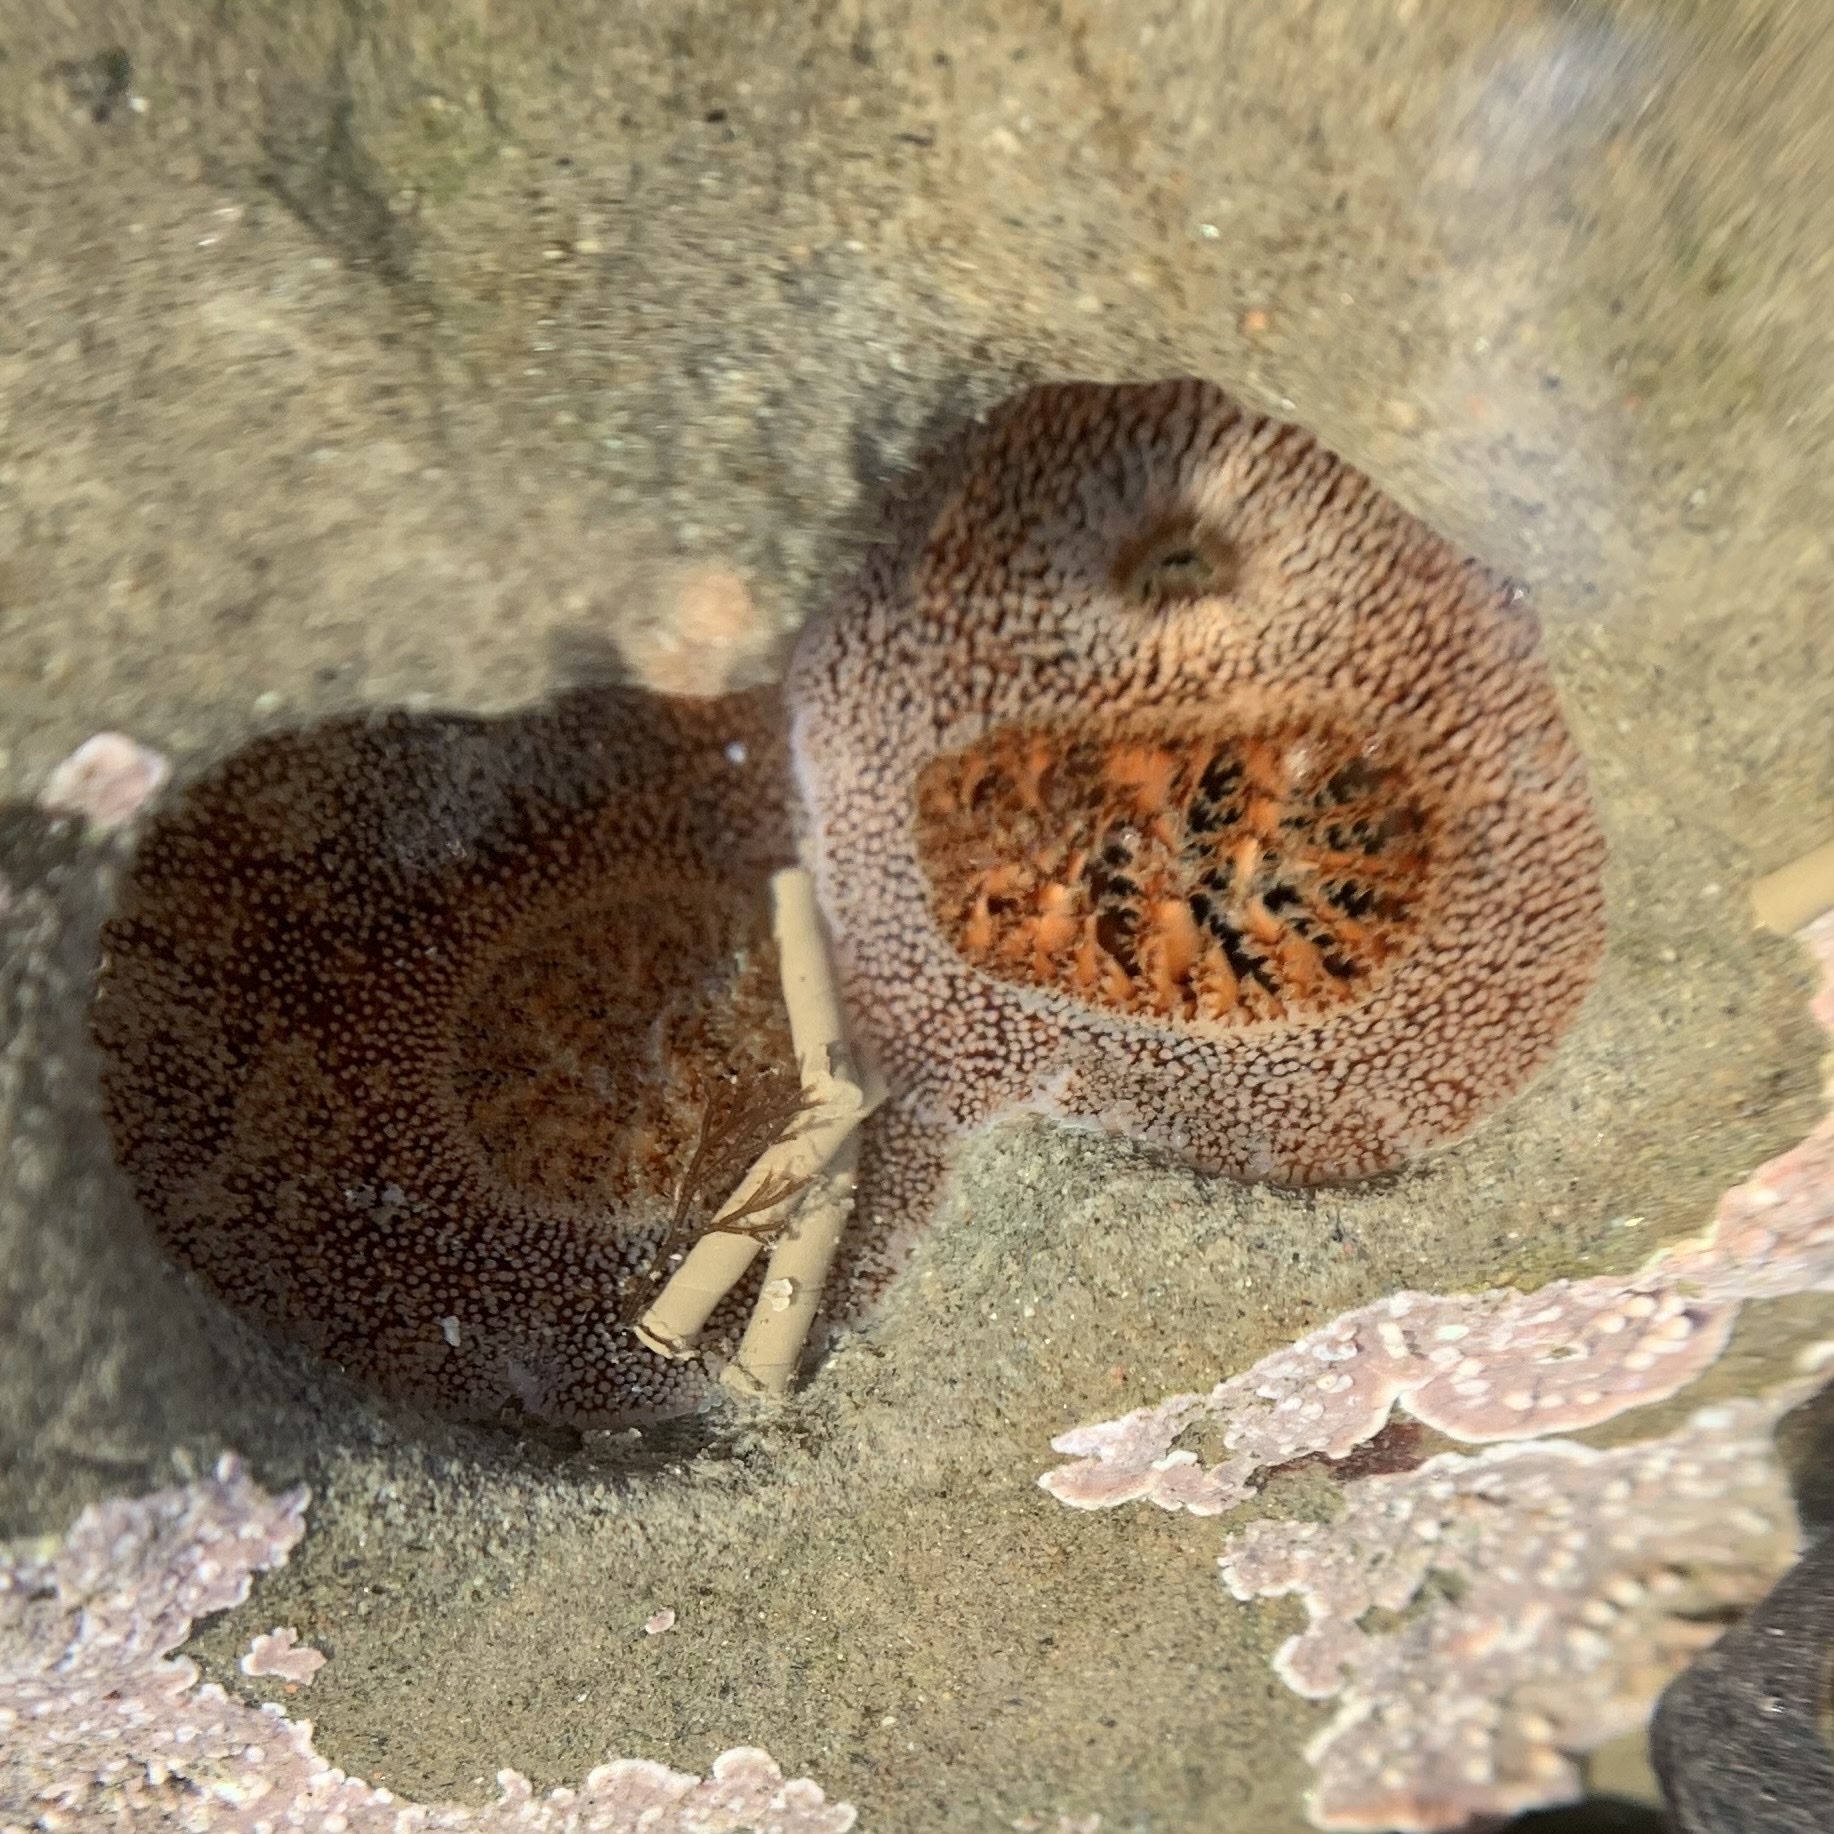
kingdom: Animalia
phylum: Mollusca
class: Bivalvia
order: Myida
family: Pholadidae
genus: Parapholas
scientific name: Parapholas californica
